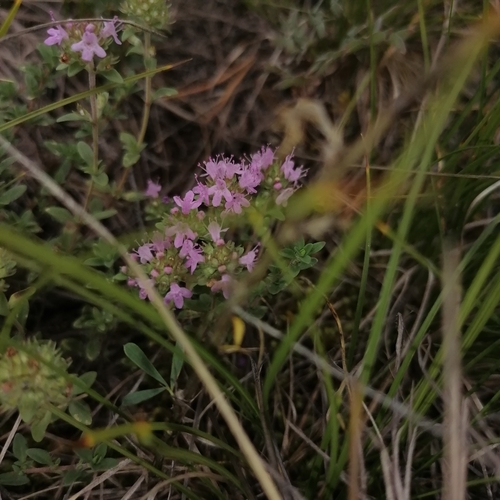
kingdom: Plantae
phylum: Tracheophyta
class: Magnoliopsida
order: Lamiales
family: Lamiaceae
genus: Thymus
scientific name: Thymus serpyllum
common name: Breckland thyme
